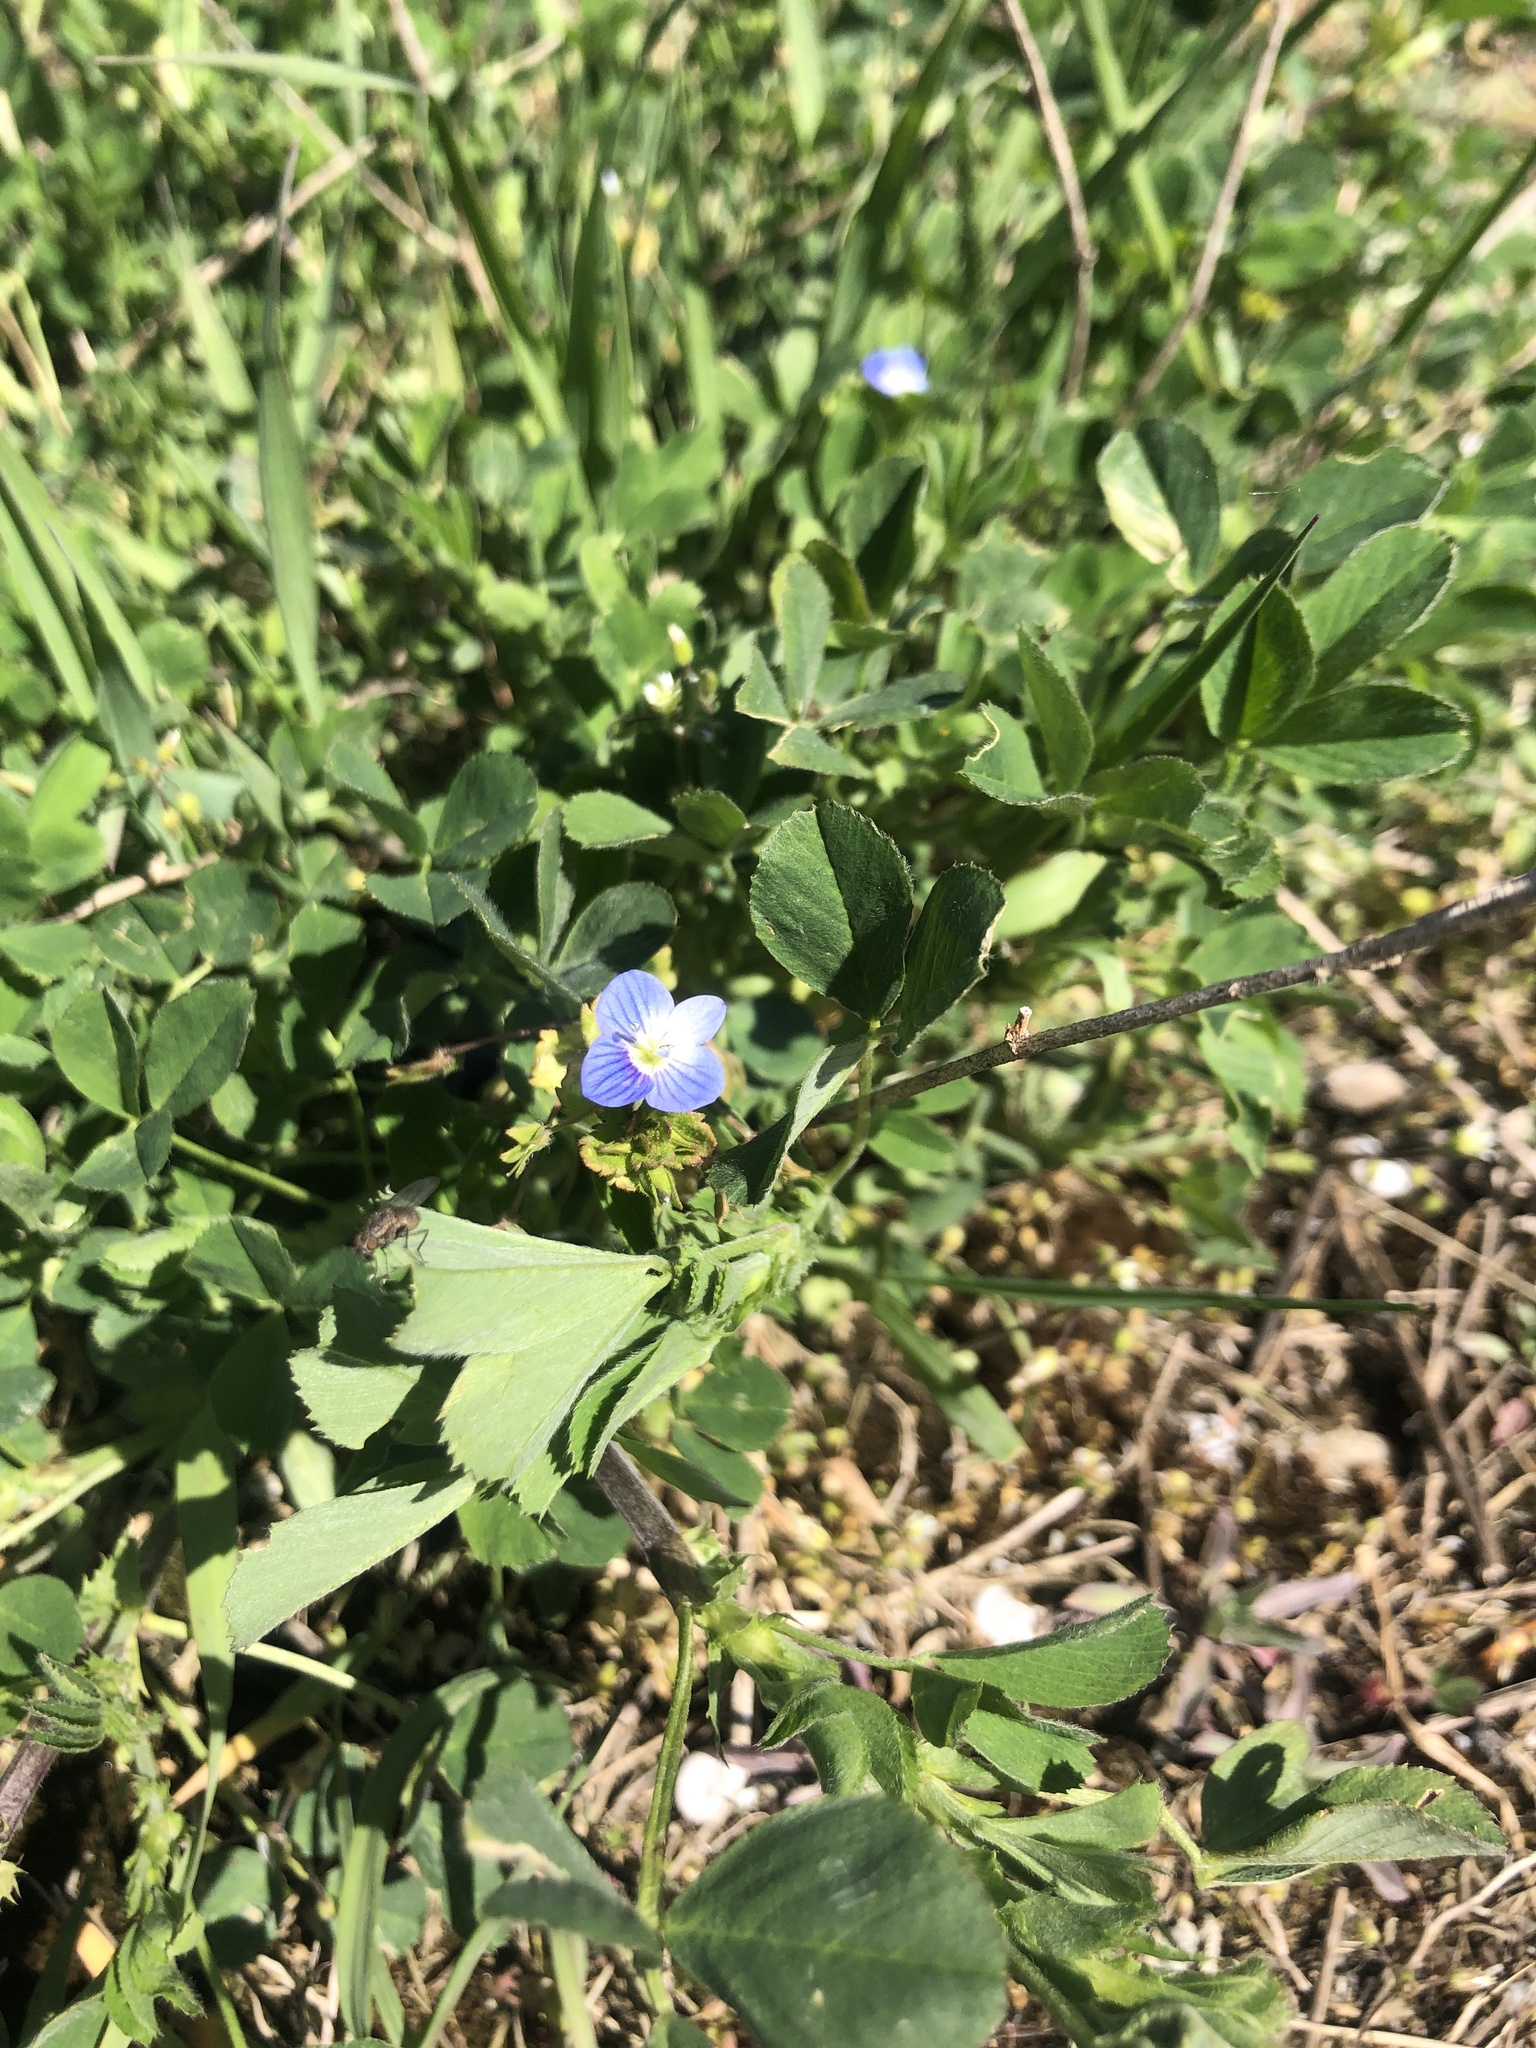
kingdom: Plantae
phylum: Tracheophyta
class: Magnoliopsida
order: Lamiales
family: Plantaginaceae
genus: Veronica
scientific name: Veronica persica
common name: Common field-speedwell
